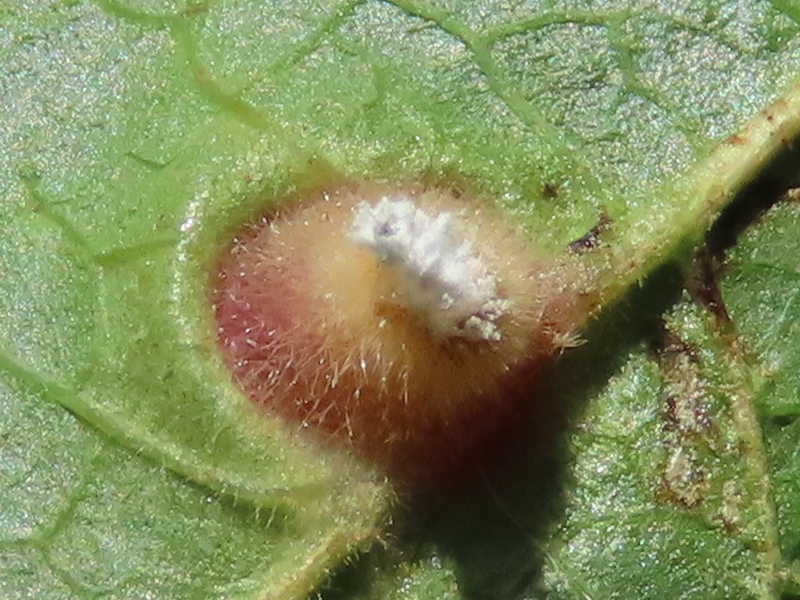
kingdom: Animalia
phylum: Arthropoda
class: Insecta
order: Hemiptera
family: Aphididae
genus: Hormaphis
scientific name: Hormaphis hamamelidis
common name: Witch-hazel cone gall aphid
